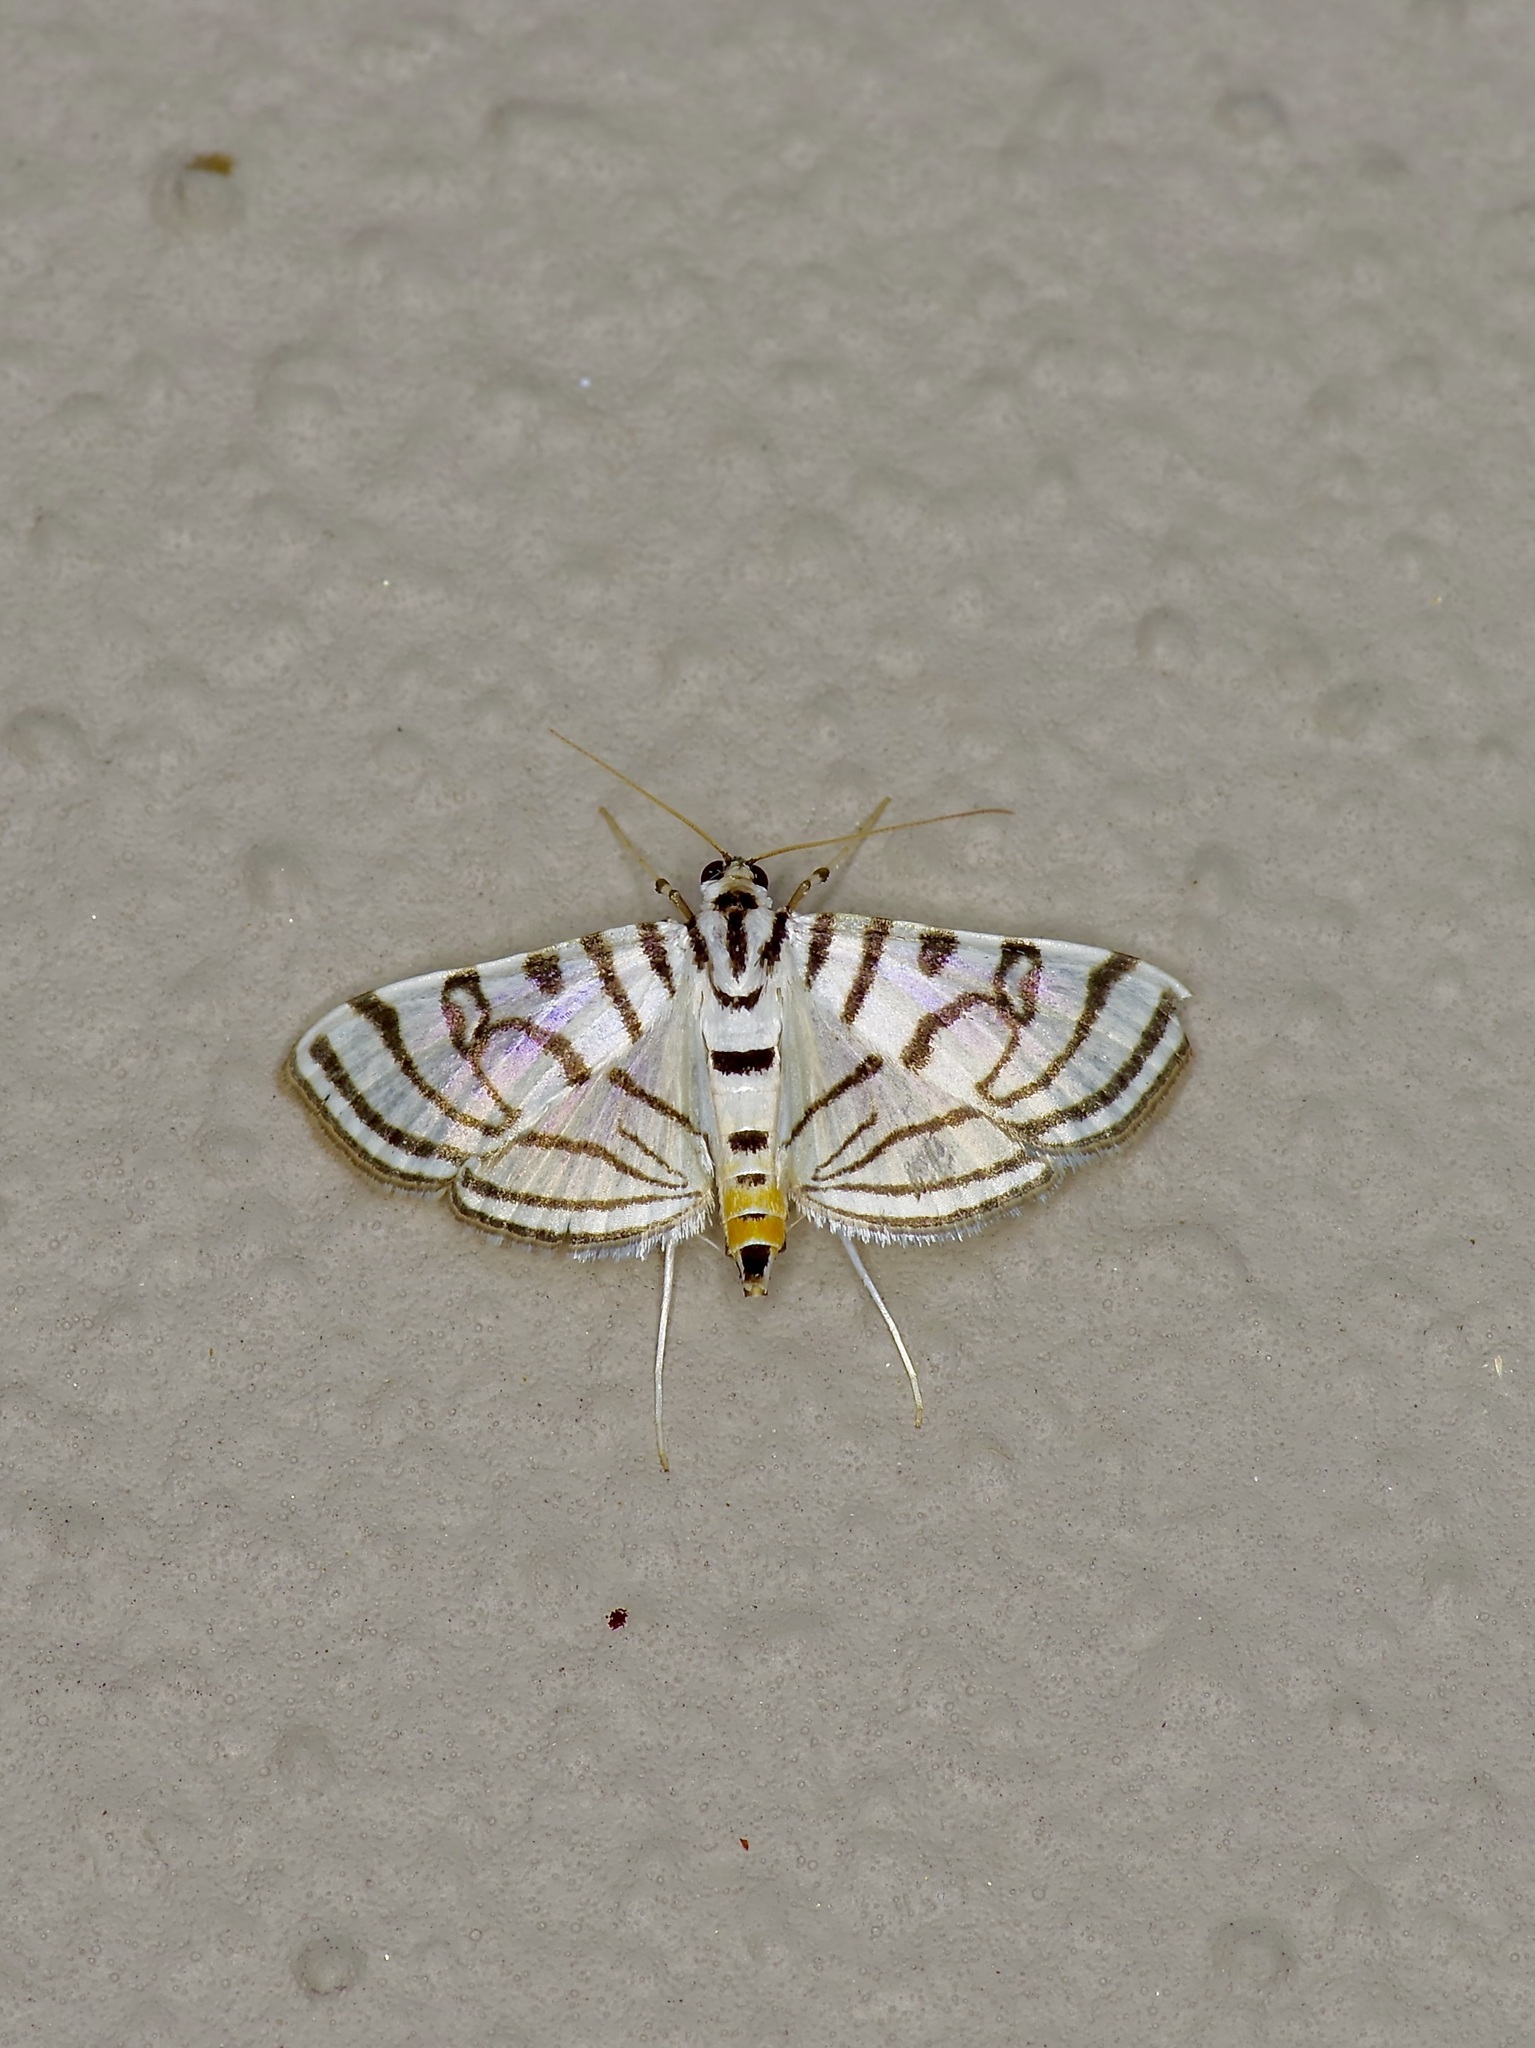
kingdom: Animalia
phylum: Arthropoda
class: Insecta
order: Lepidoptera
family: Crambidae
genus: Conchylodes
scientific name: Conchylodes ovulalis
